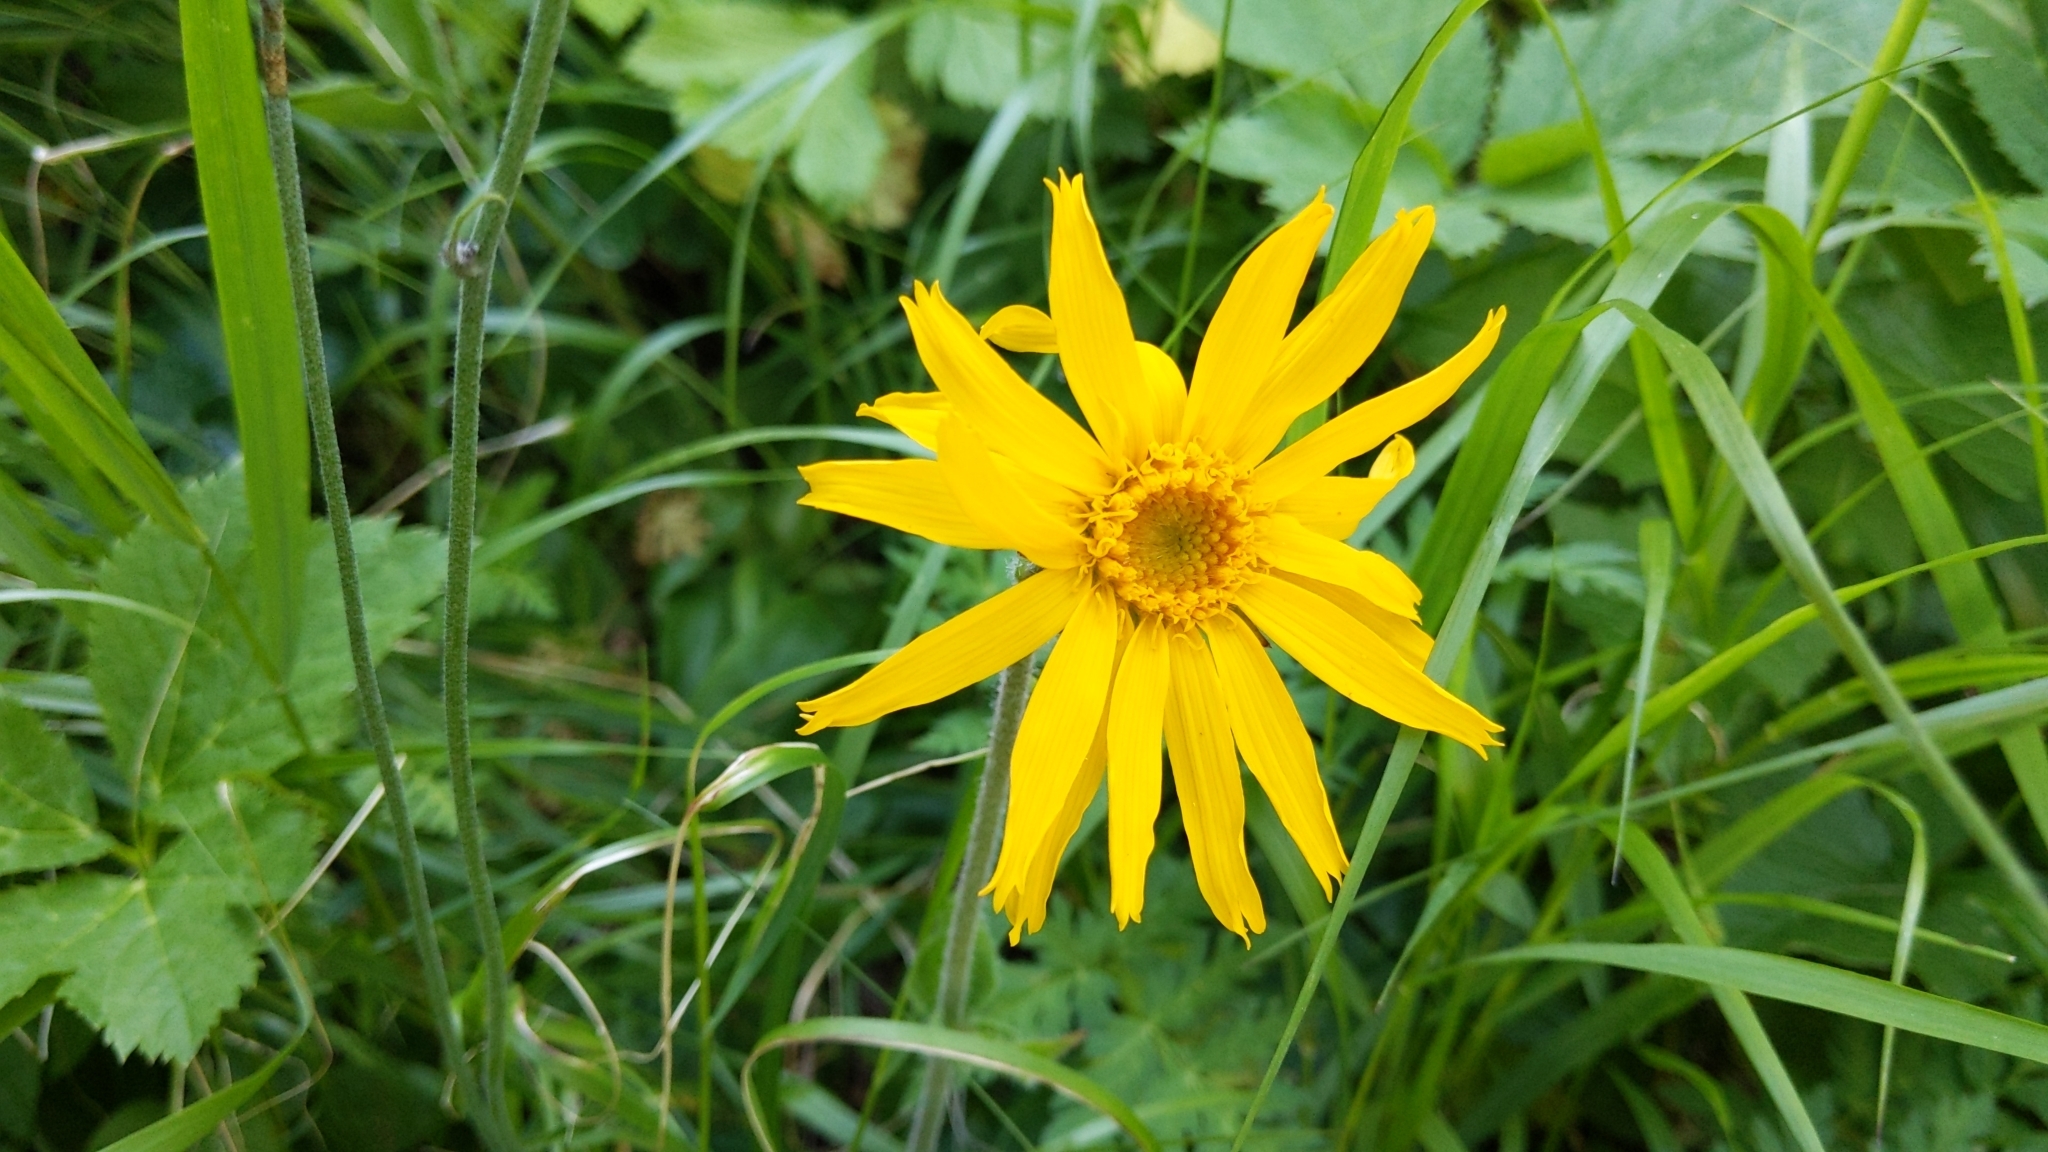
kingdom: Plantae
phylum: Tracheophyta
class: Magnoliopsida
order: Asterales
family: Asteraceae
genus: Arnica
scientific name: Arnica montana
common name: Leopard's bane
